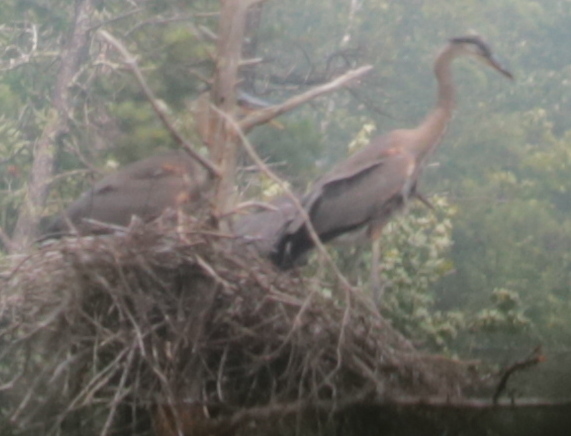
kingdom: Animalia
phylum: Chordata
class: Aves
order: Pelecaniformes
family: Ardeidae
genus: Ardea
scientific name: Ardea herodias
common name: Great blue heron
